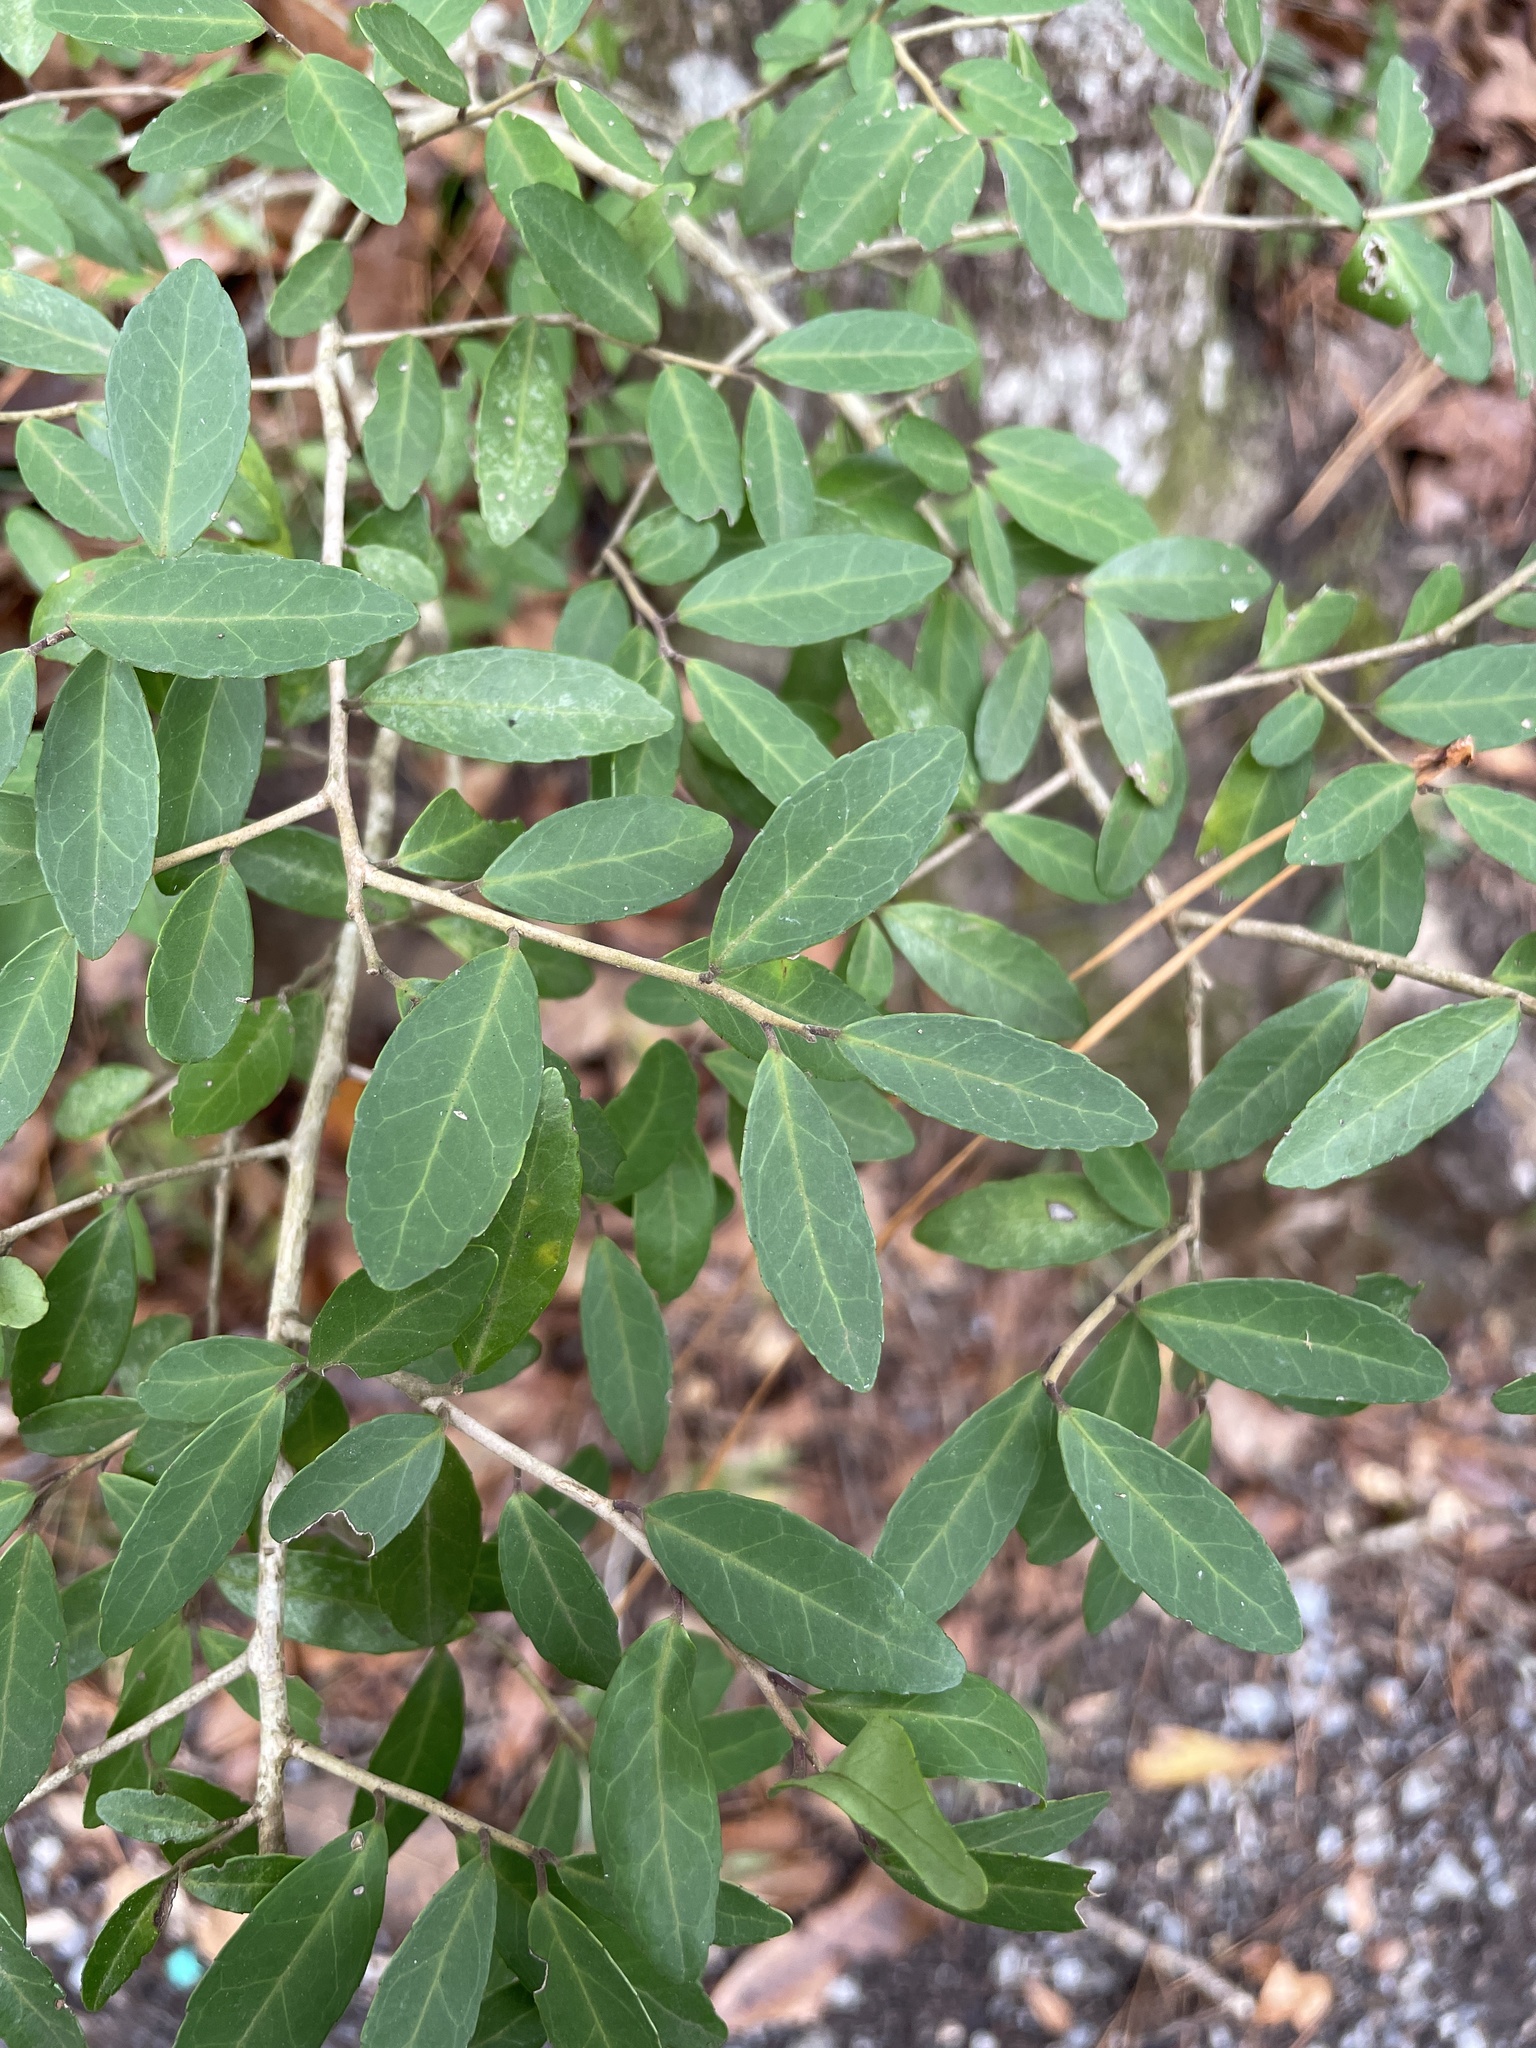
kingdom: Plantae
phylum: Tracheophyta
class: Magnoliopsida
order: Aquifoliales
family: Aquifoliaceae
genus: Ilex
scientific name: Ilex vomitoria
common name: Yaupon holly
